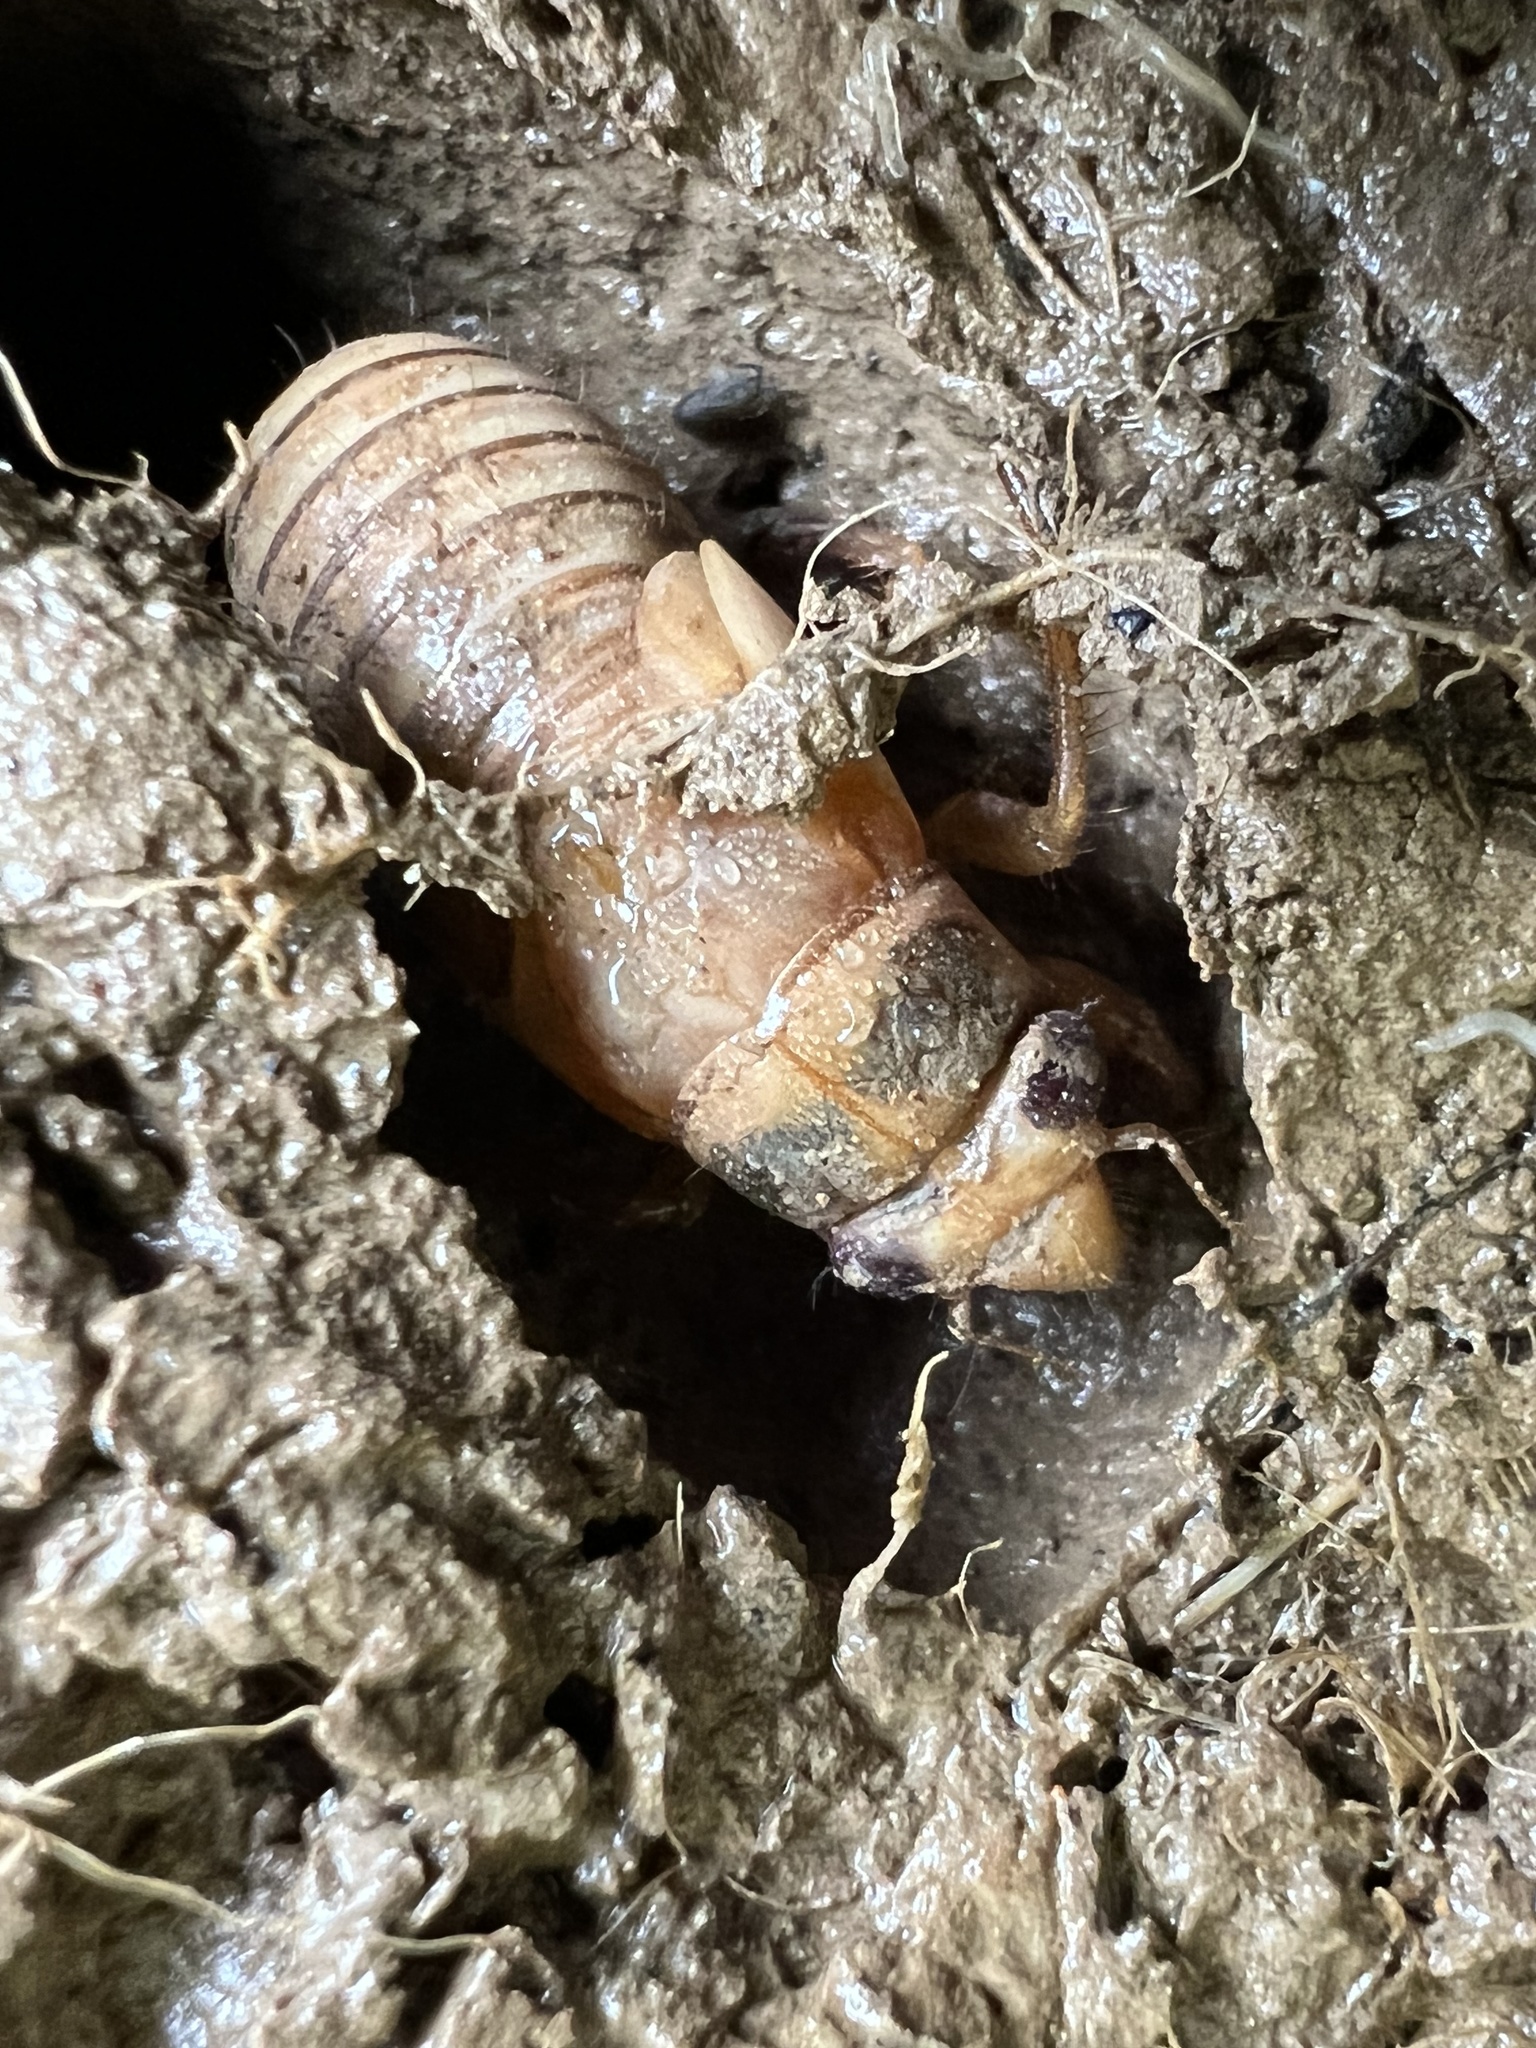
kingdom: Animalia
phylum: Arthropoda
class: Insecta
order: Hemiptera
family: Cicadidae
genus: Magicicada
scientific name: Magicicada
